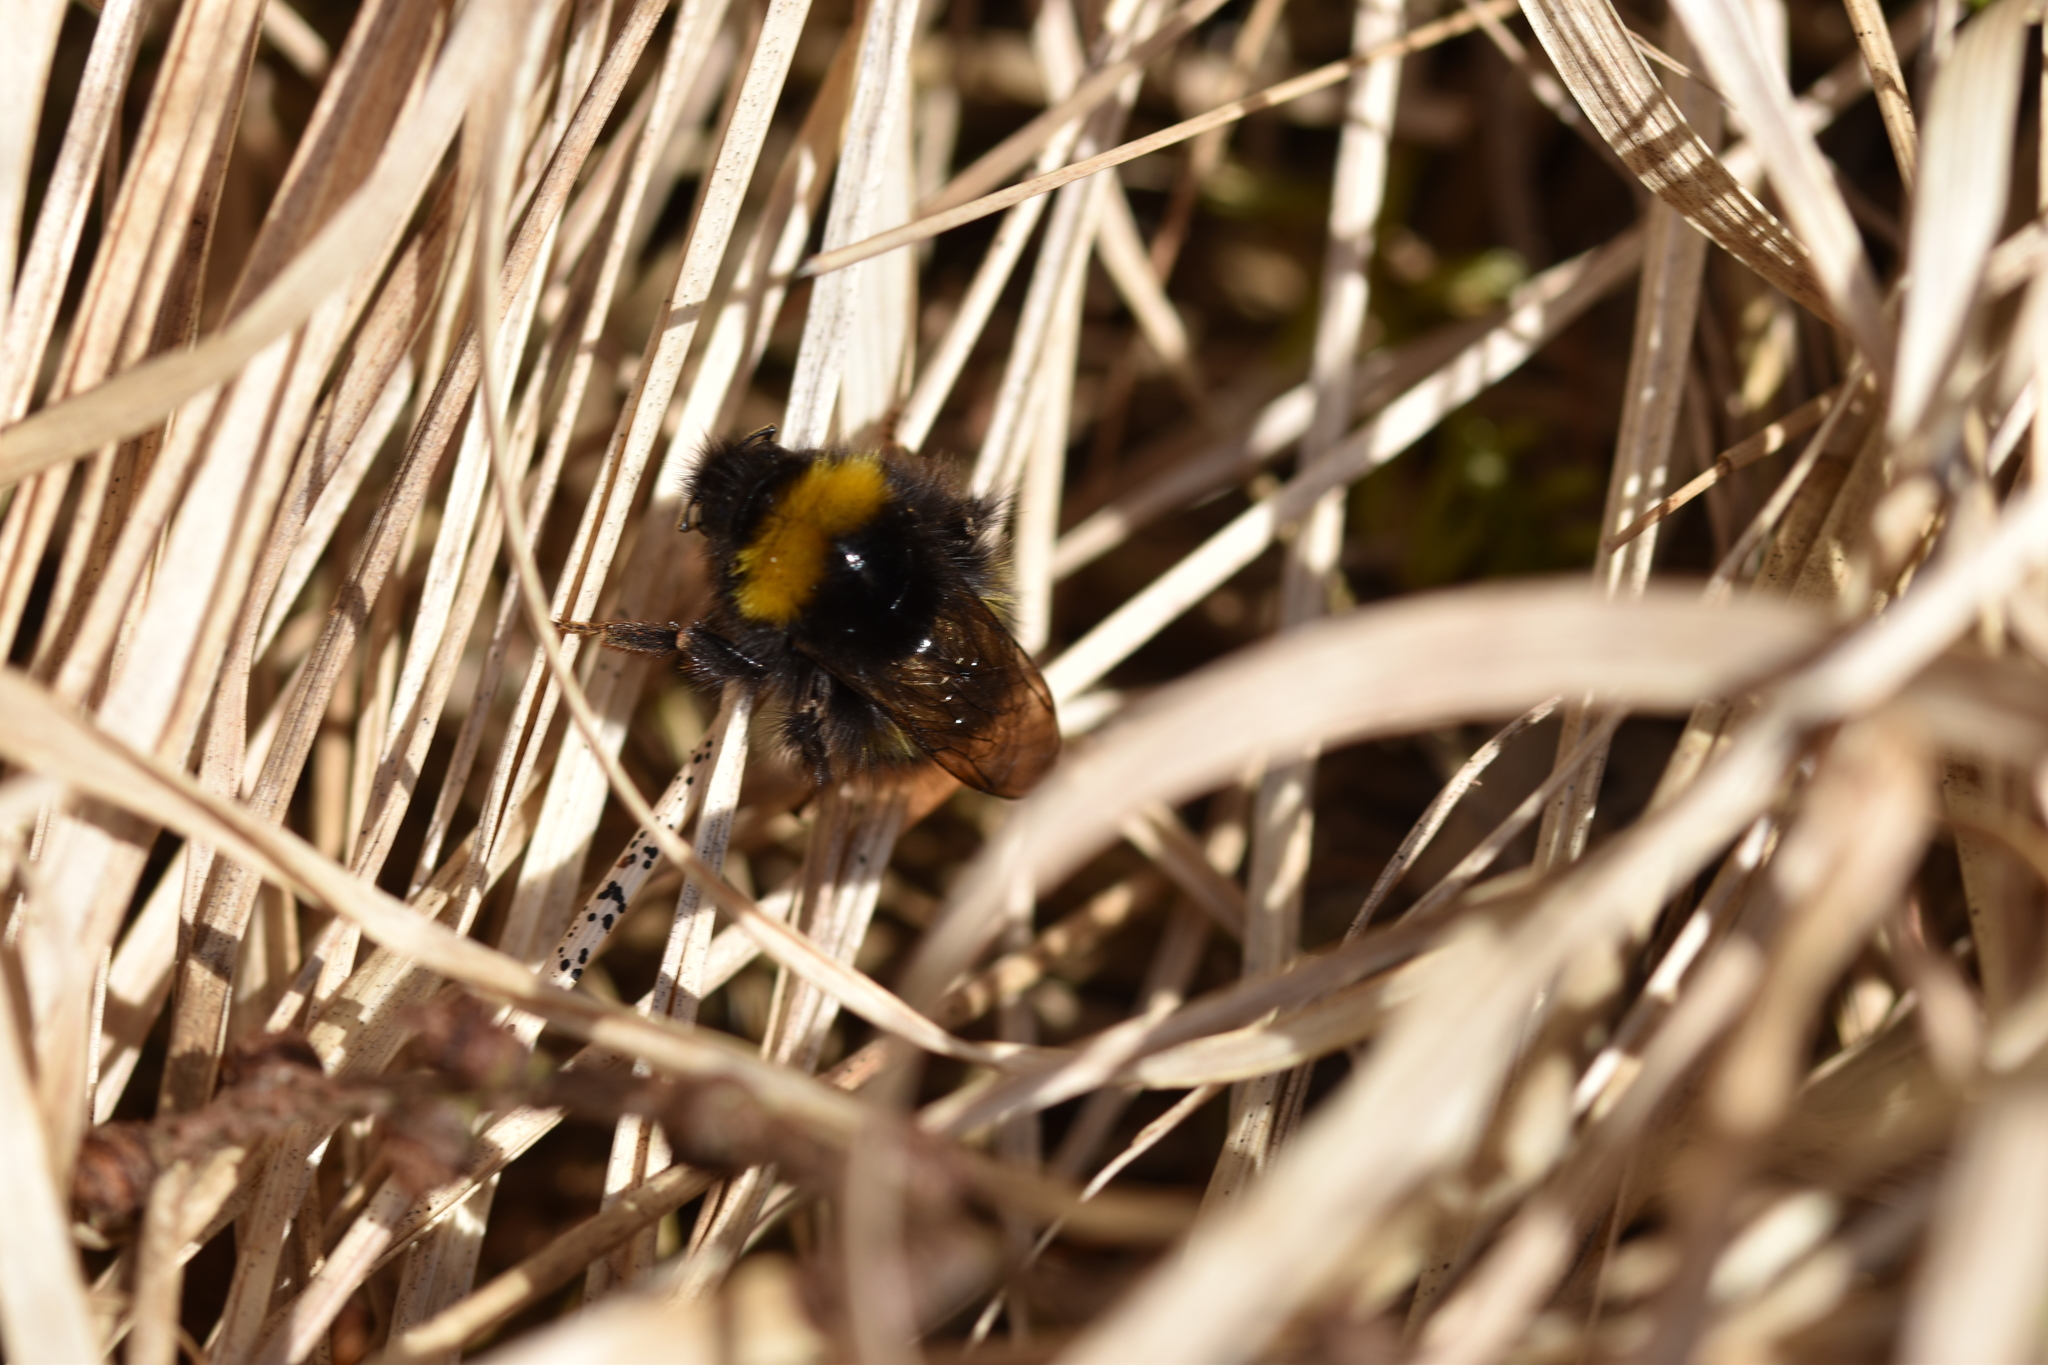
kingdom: Animalia
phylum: Arthropoda
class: Insecta
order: Hymenoptera
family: Apidae
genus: Bombus
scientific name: Bombus pratorum
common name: Early humble-bee
